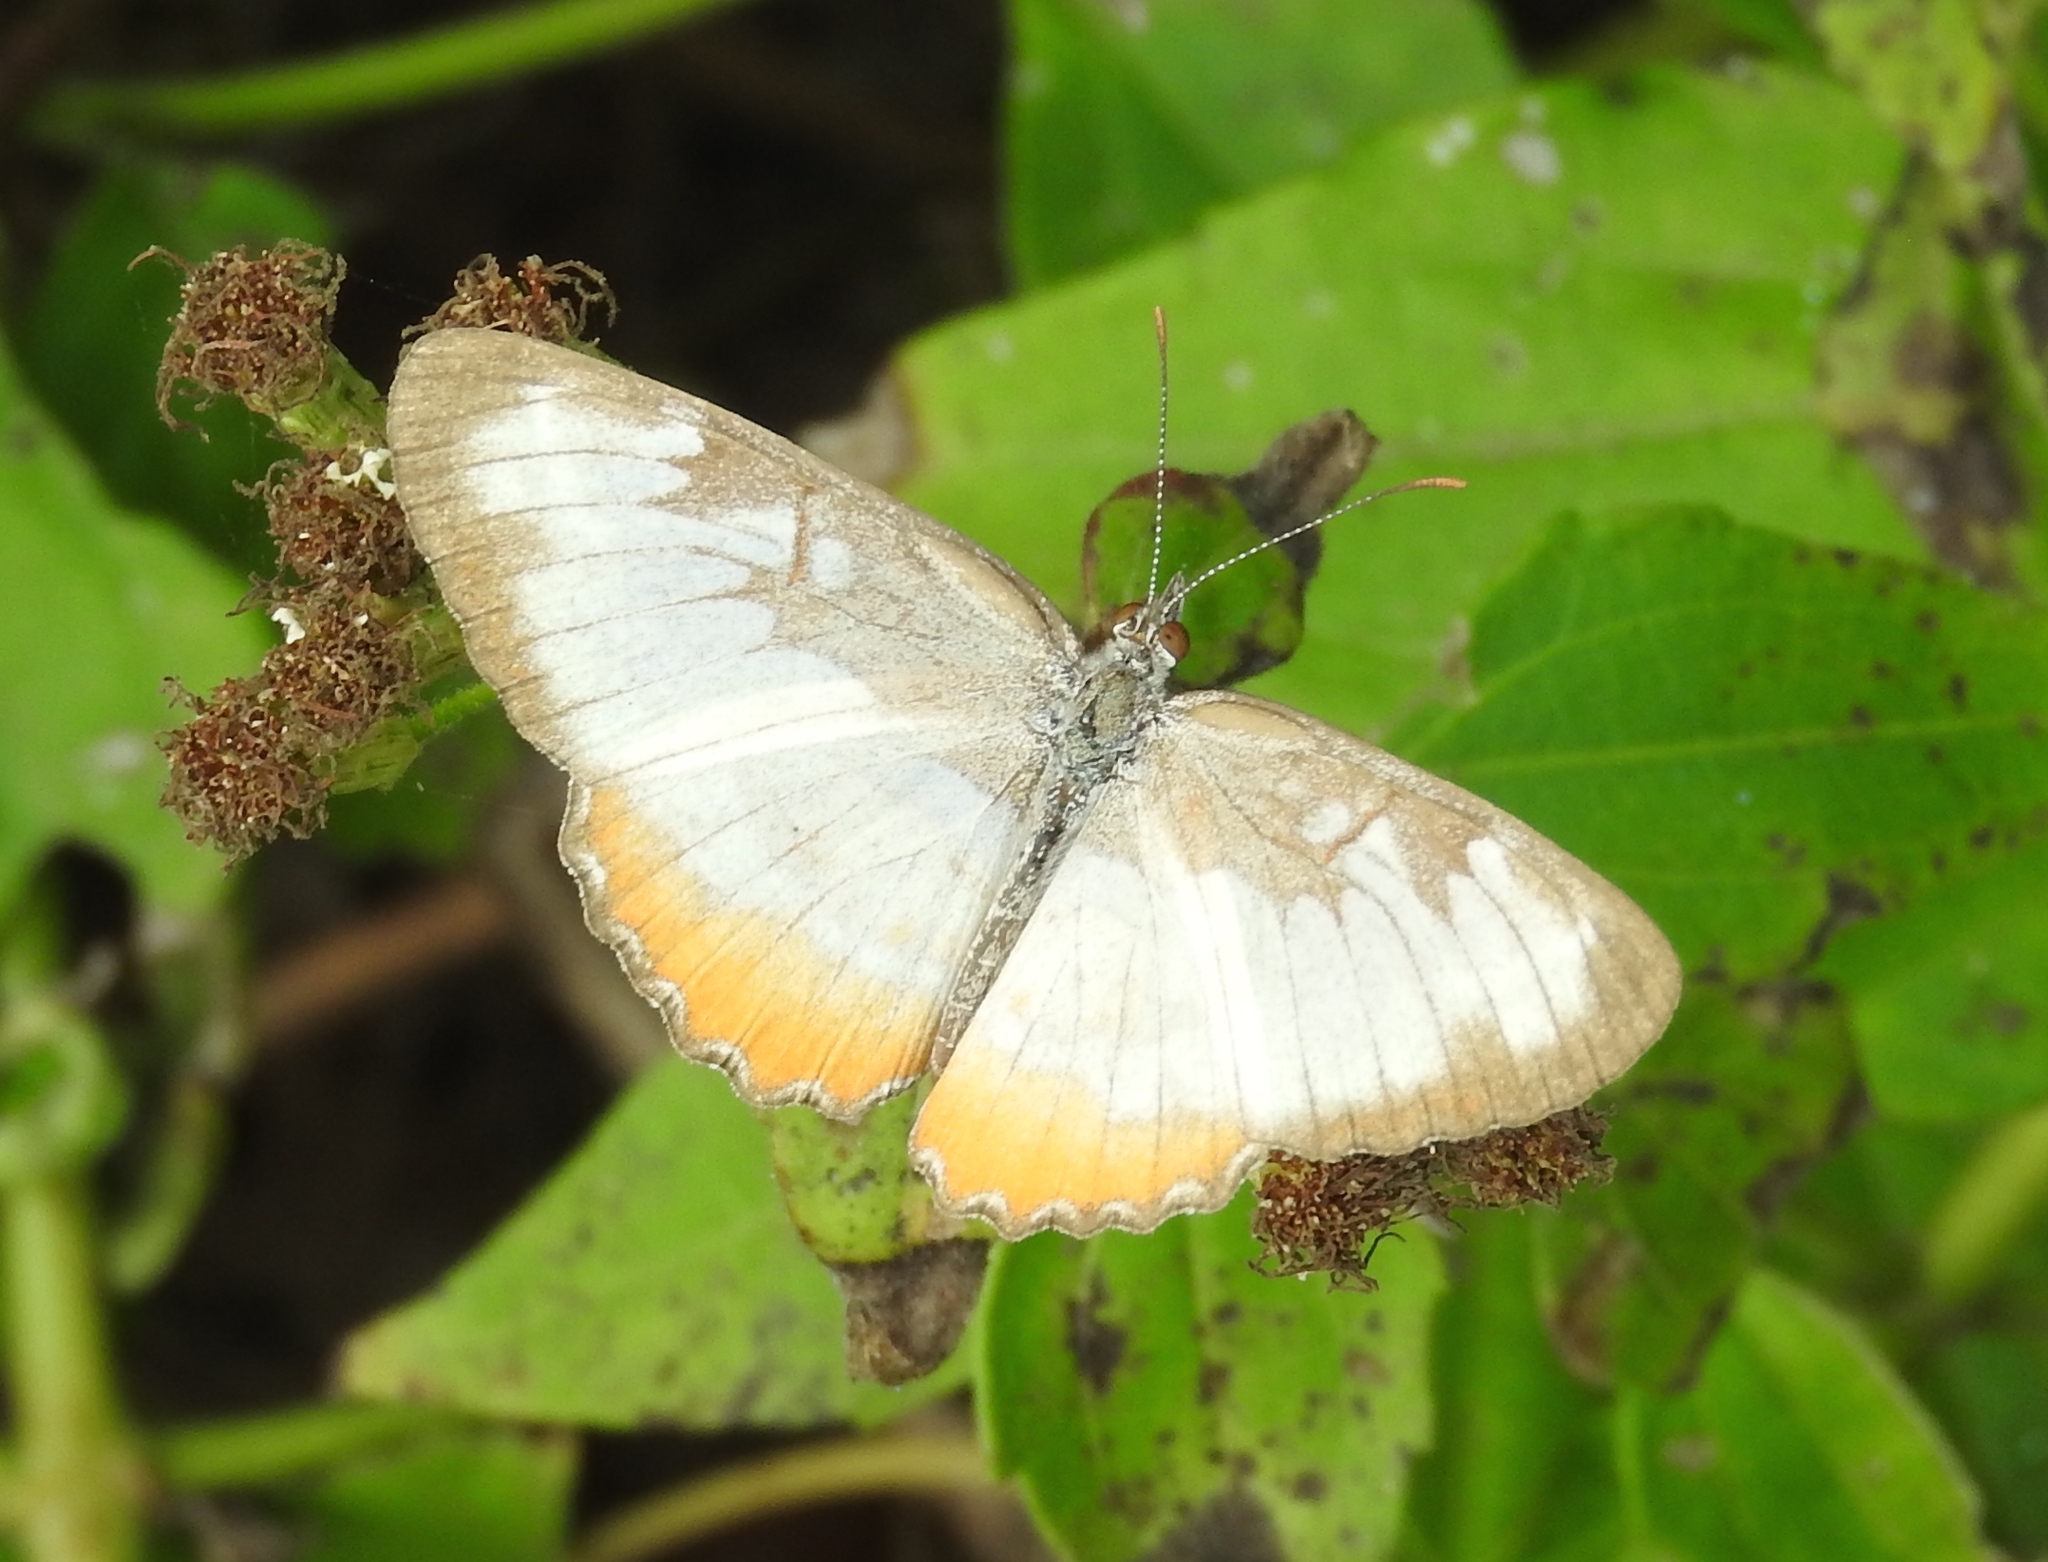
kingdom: Animalia
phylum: Arthropoda
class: Insecta
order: Lepidoptera
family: Nymphalidae
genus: Mestra
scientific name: Mestra amymone
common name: Common mestra
